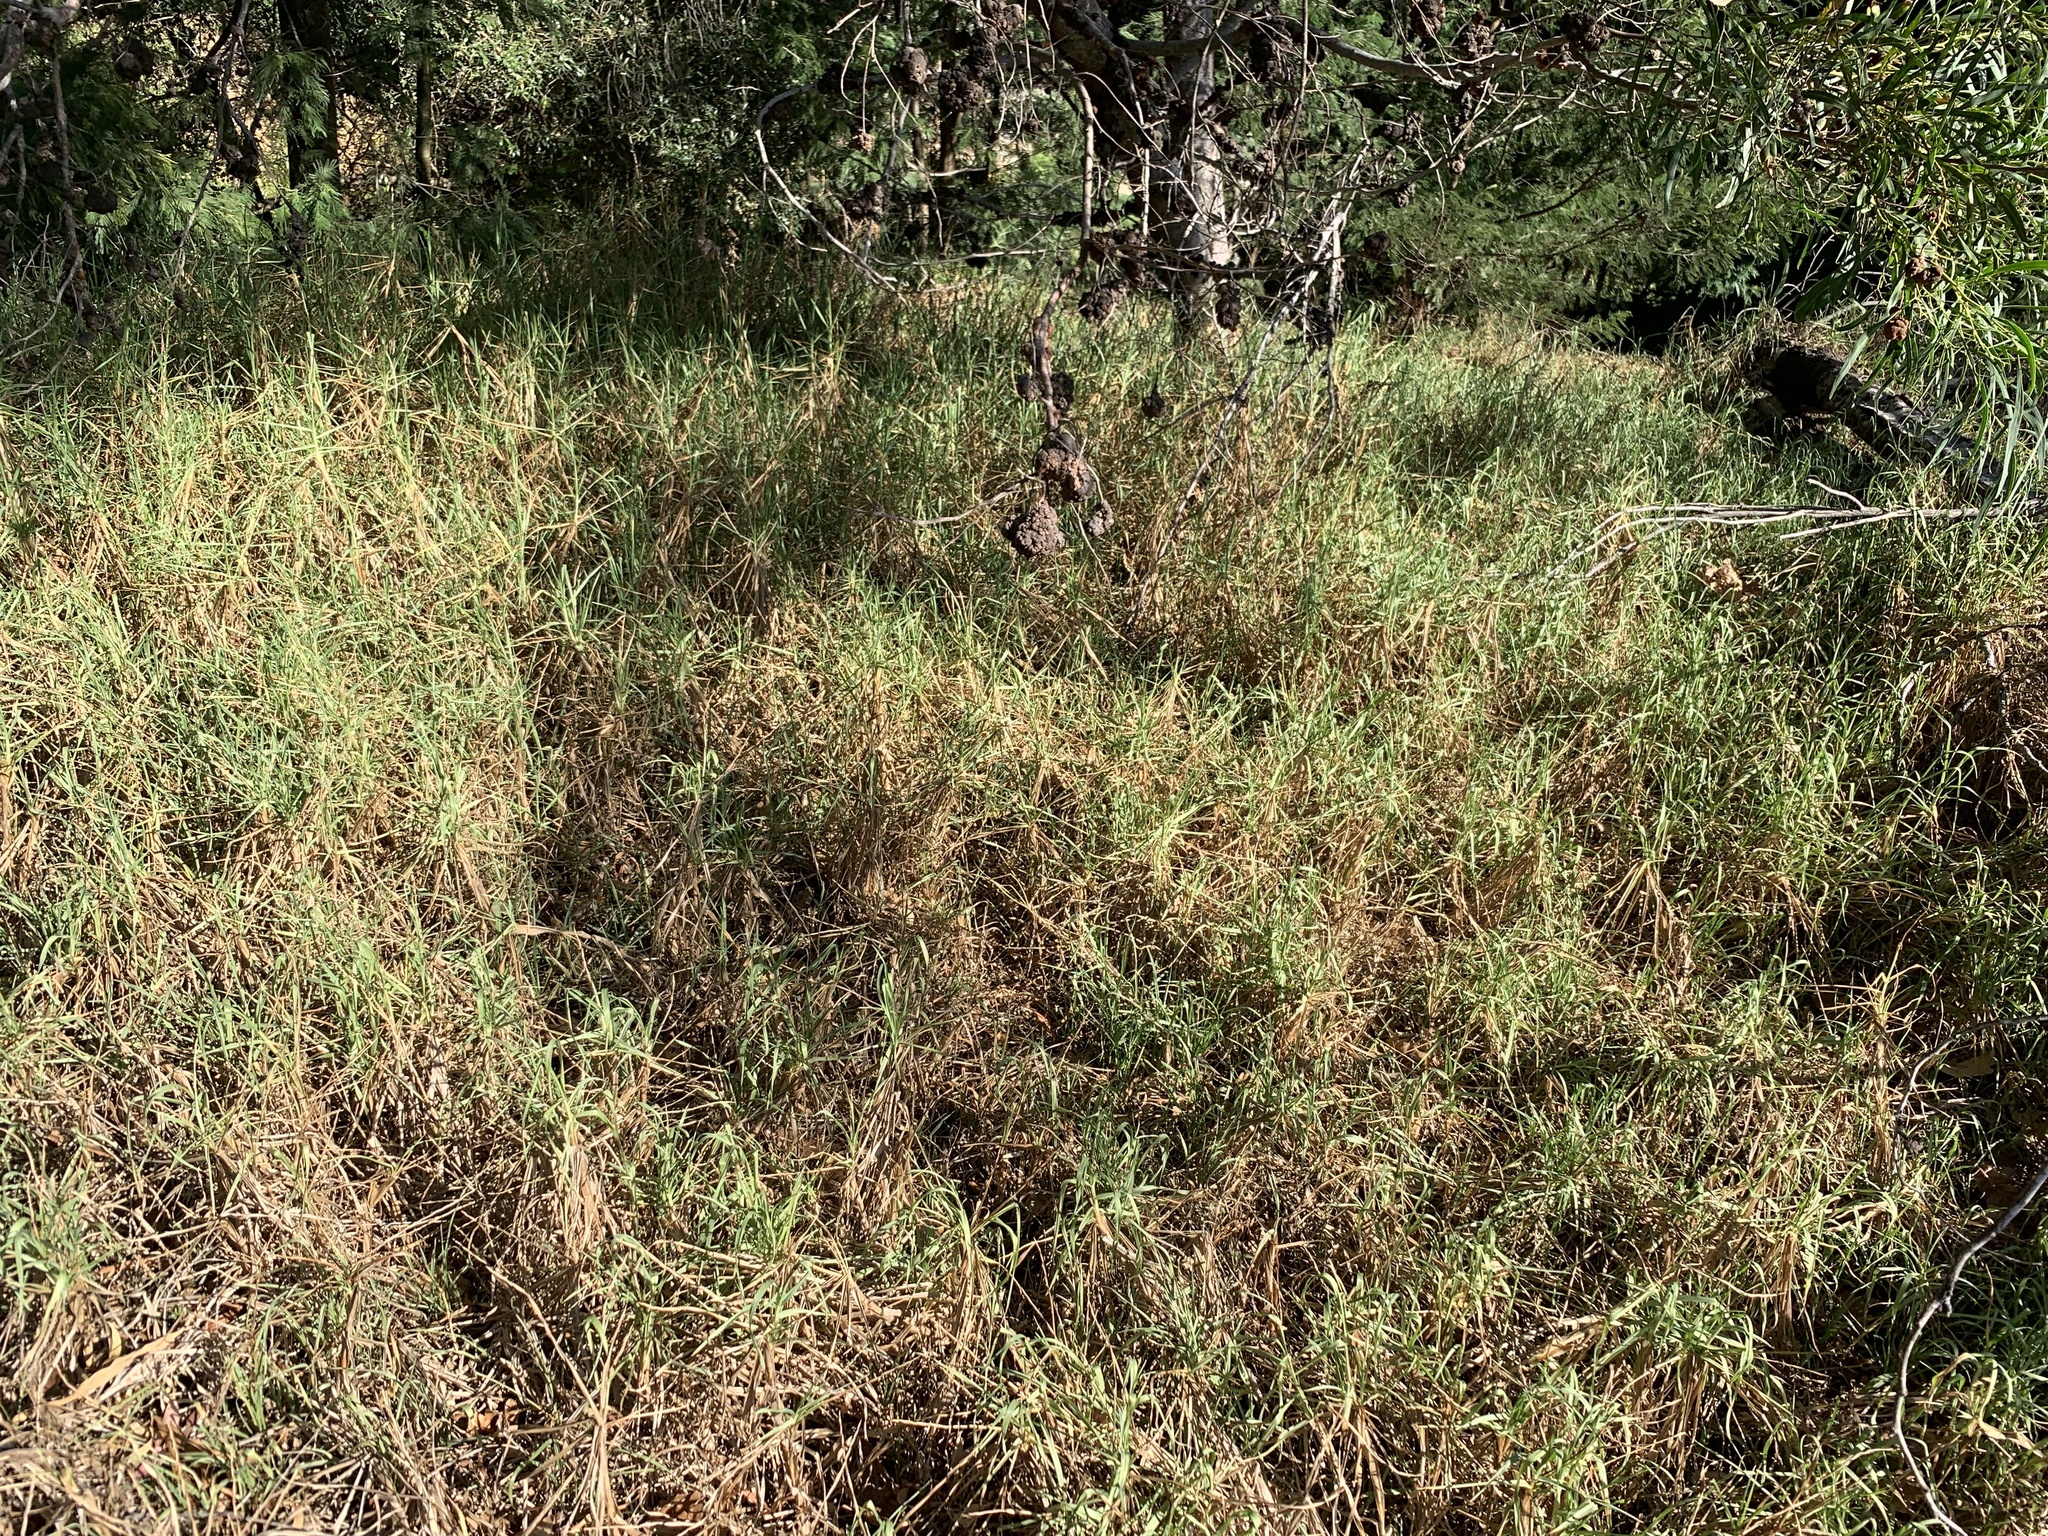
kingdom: Plantae
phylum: Tracheophyta
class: Liliopsida
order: Poales
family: Poaceae
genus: Cenchrus
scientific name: Cenchrus clandestinus
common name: Kikuyugrass
